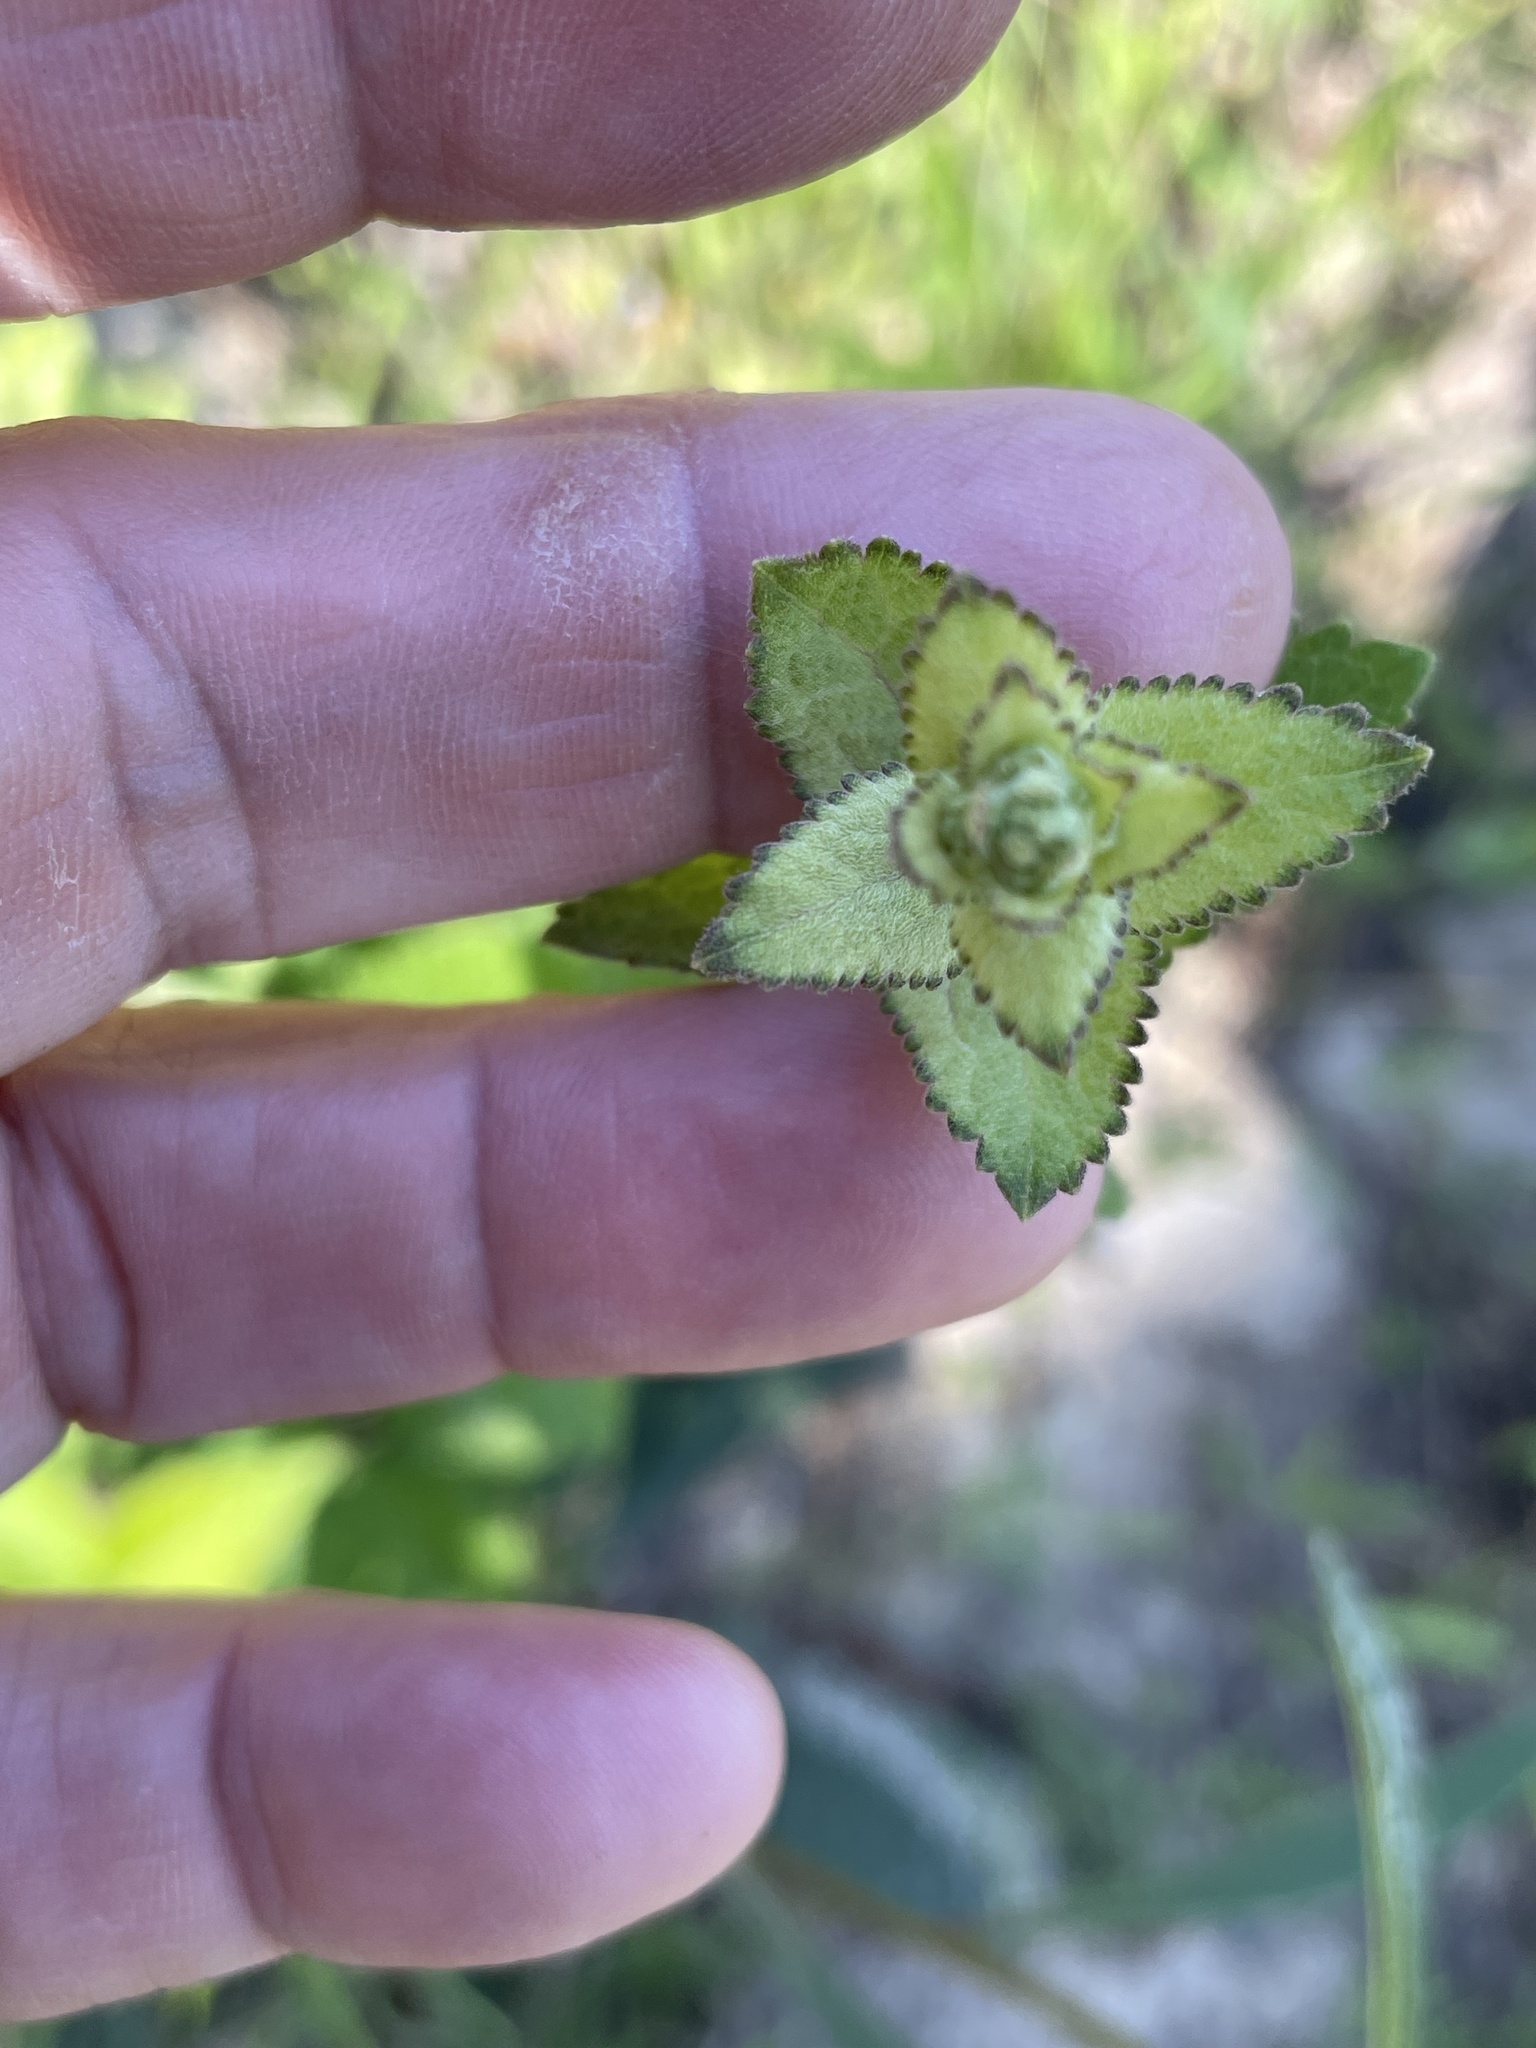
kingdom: Plantae
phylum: Tracheophyta
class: Magnoliopsida
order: Asterales
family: Asteraceae
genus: Eupatorium
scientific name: Eupatorium rotundifolium
